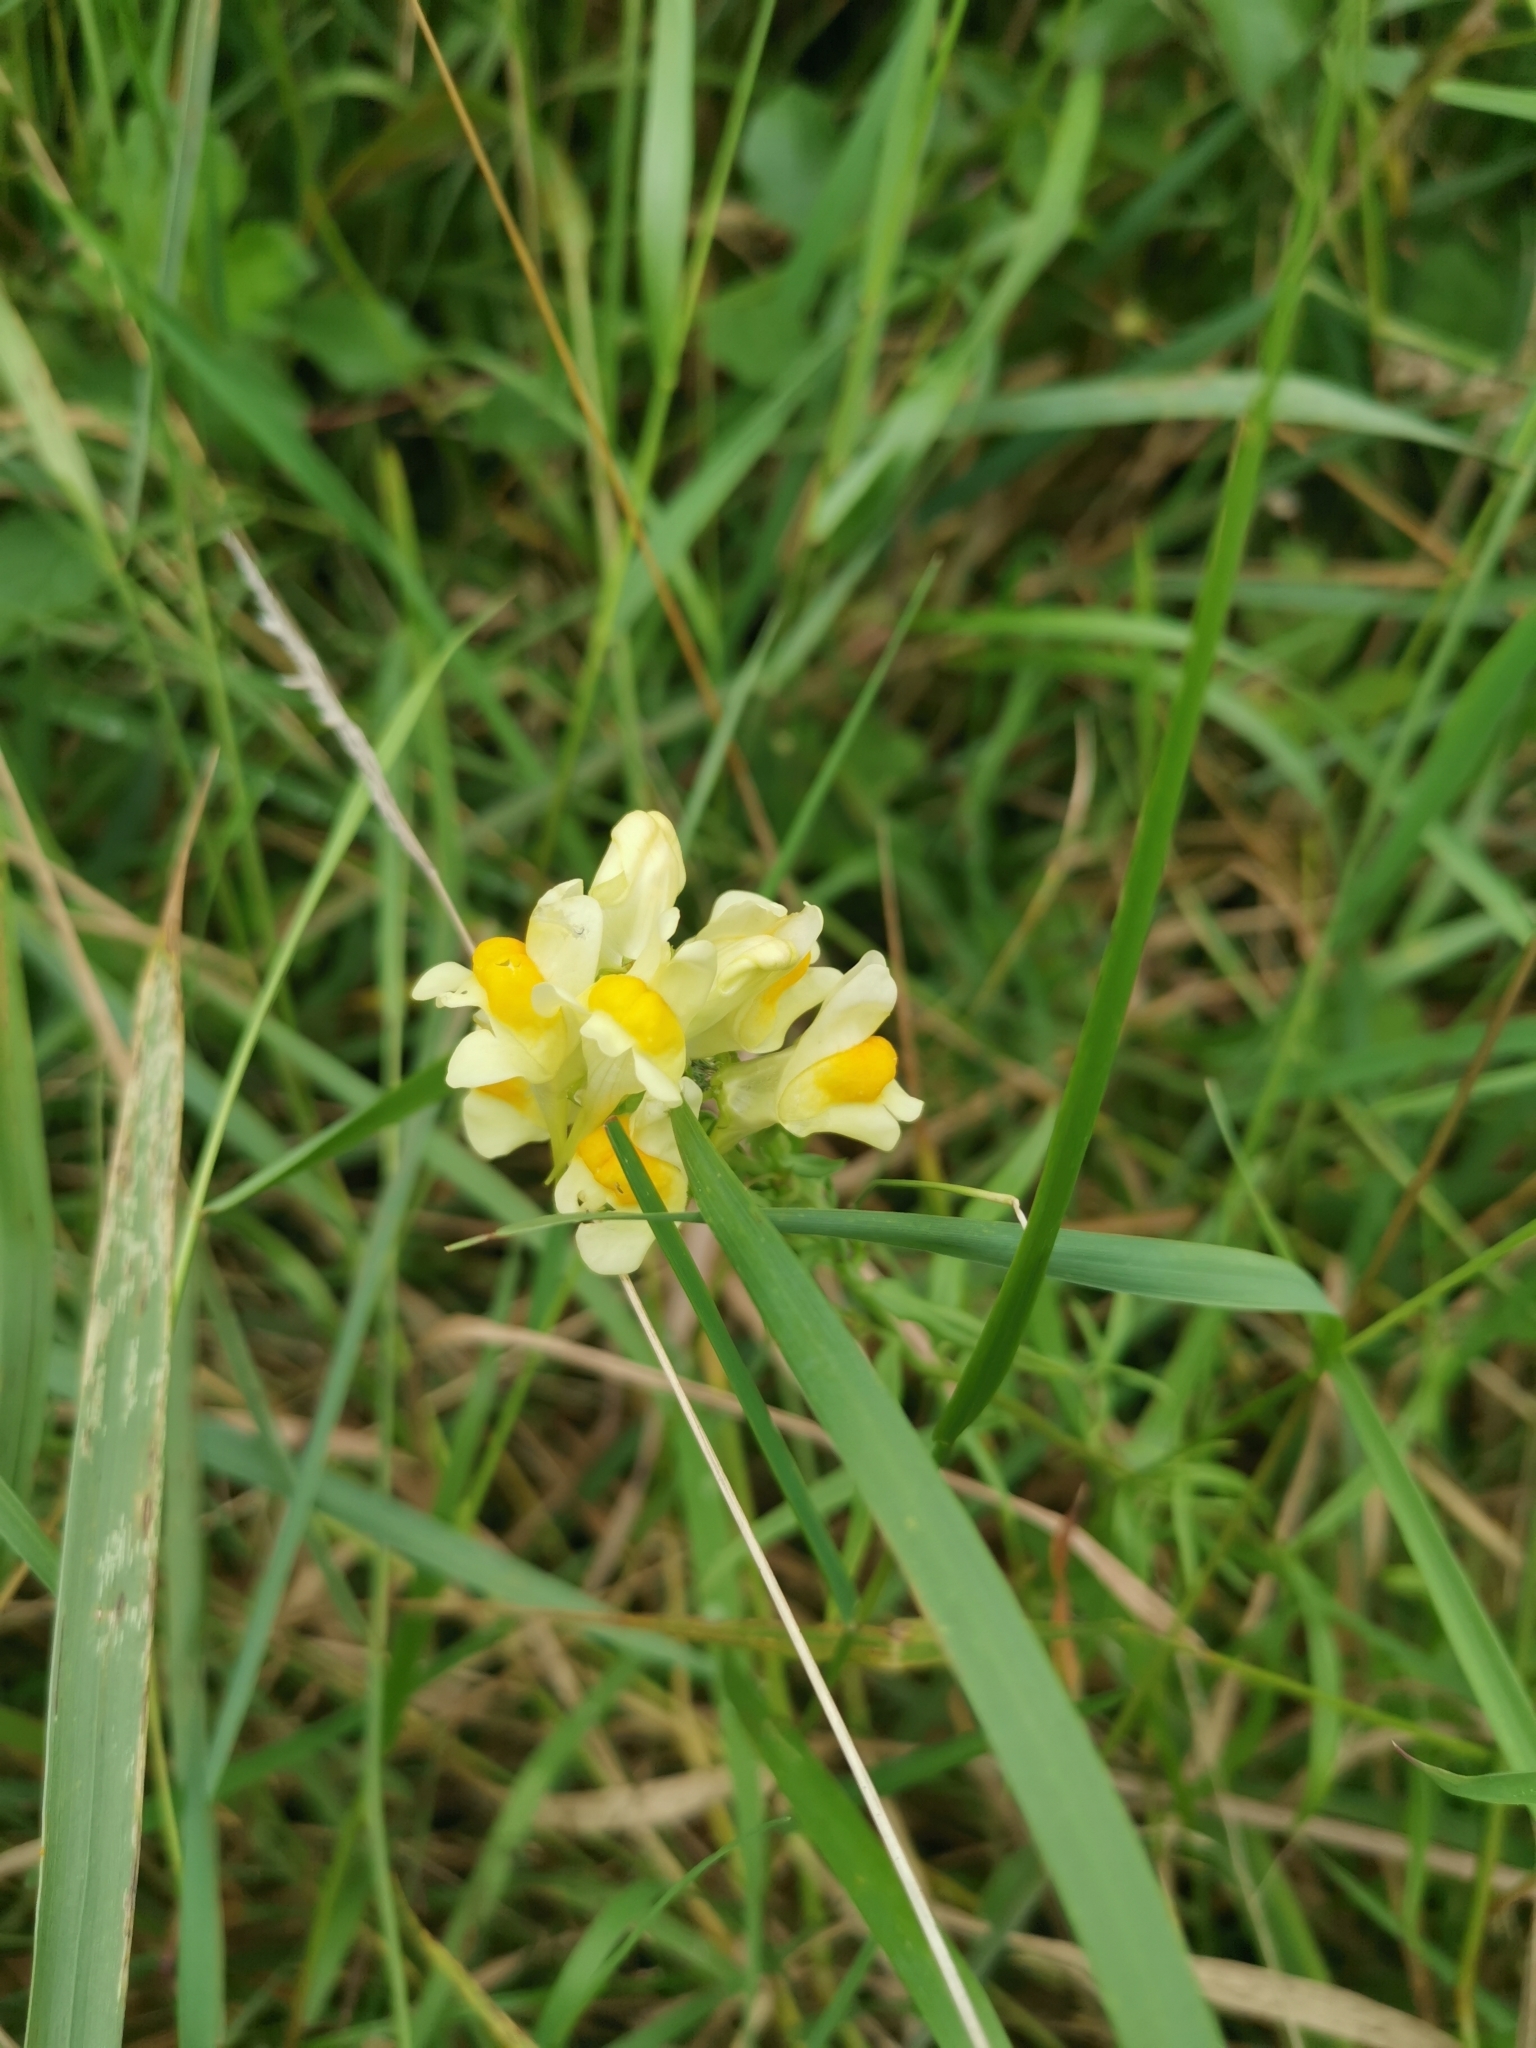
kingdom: Plantae
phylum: Tracheophyta
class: Magnoliopsida
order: Lamiales
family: Plantaginaceae
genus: Linaria
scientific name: Linaria vulgaris
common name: Butter and eggs
